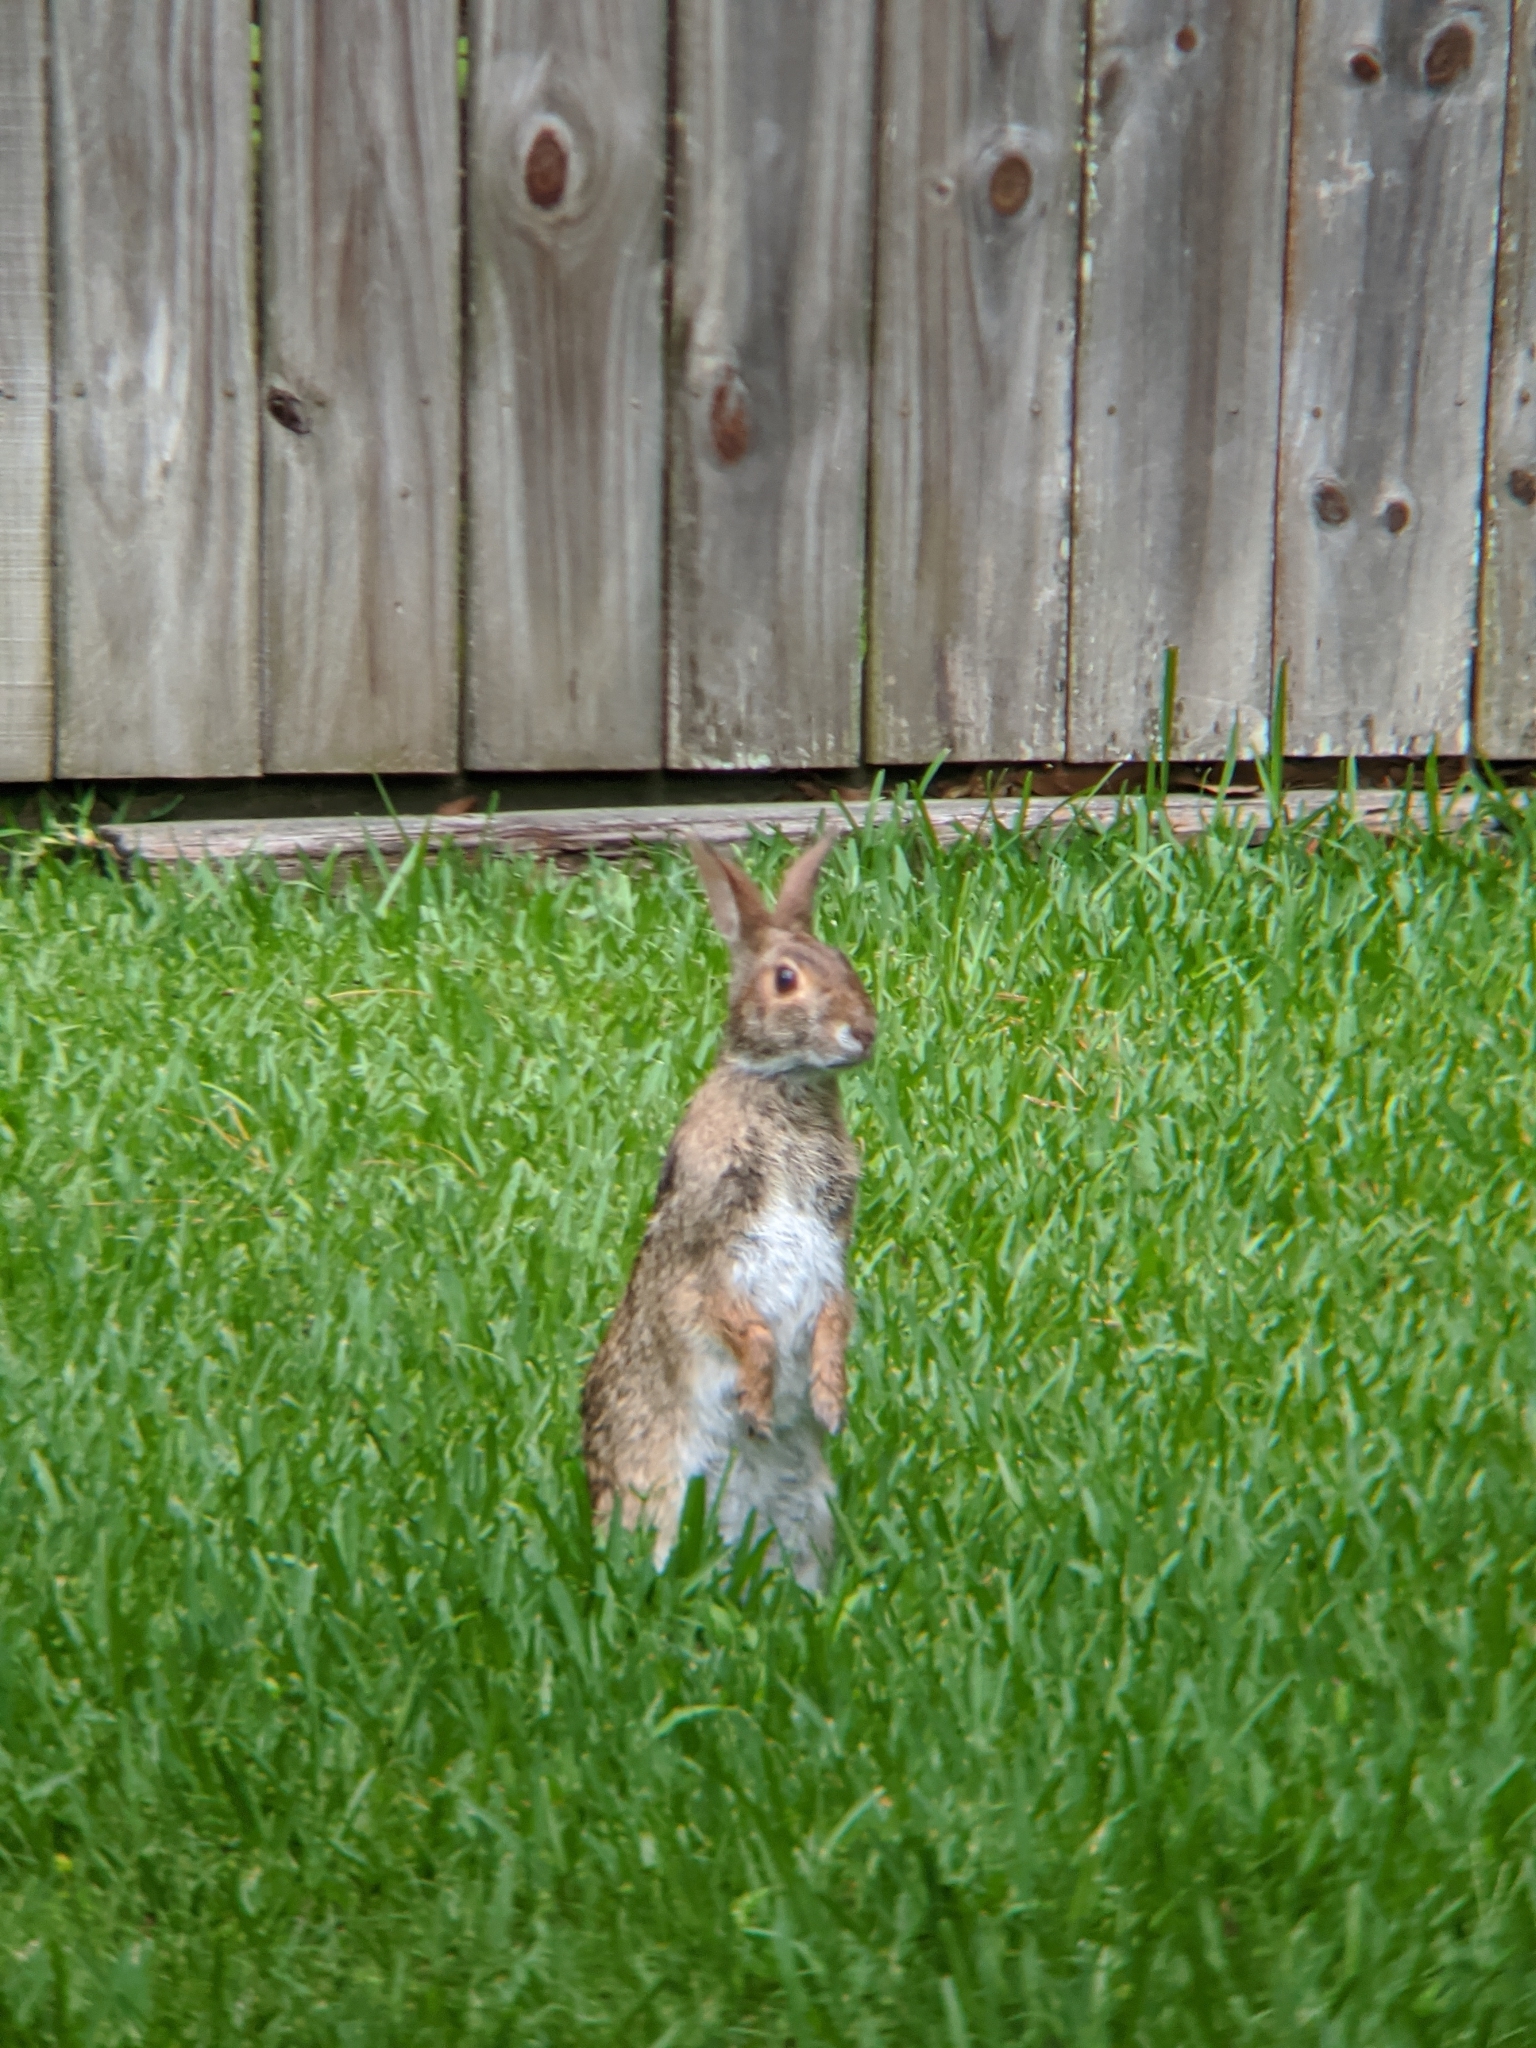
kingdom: Animalia
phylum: Chordata
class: Mammalia
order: Lagomorpha
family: Leporidae
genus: Sylvilagus
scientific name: Sylvilagus aquaticus
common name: Swamp rabbit
